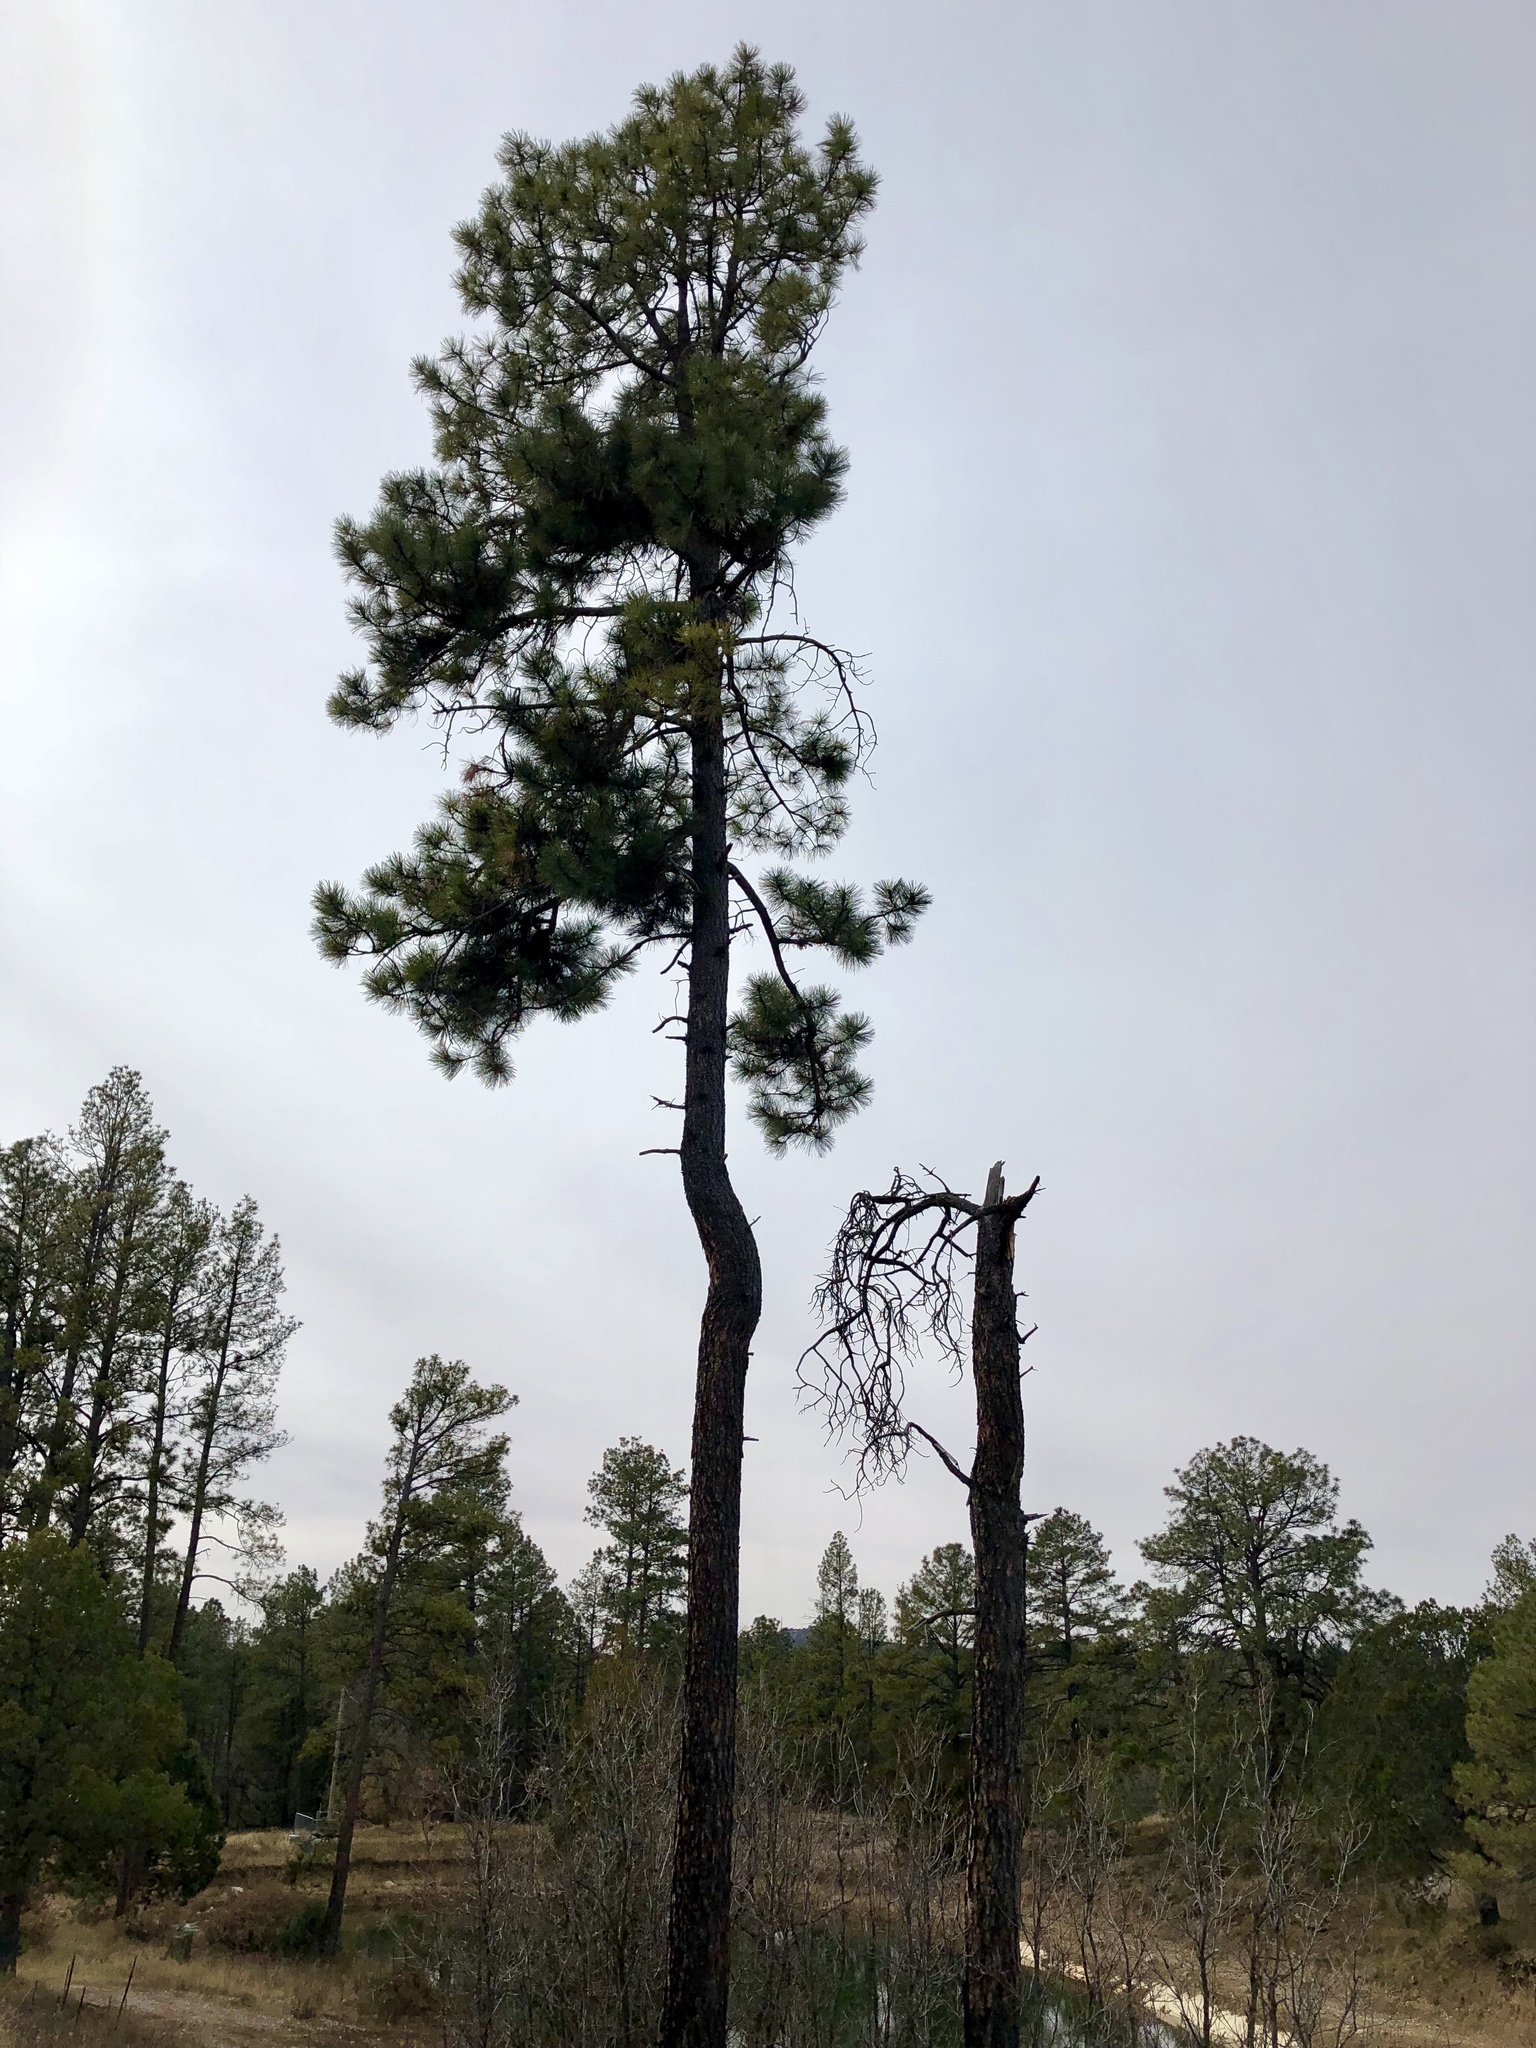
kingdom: Plantae
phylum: Tracheophyta
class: Pinopsida
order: Pinales
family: Pinaceae
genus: Pinus
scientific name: Pinus ponderosa
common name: Western yellow-pine
